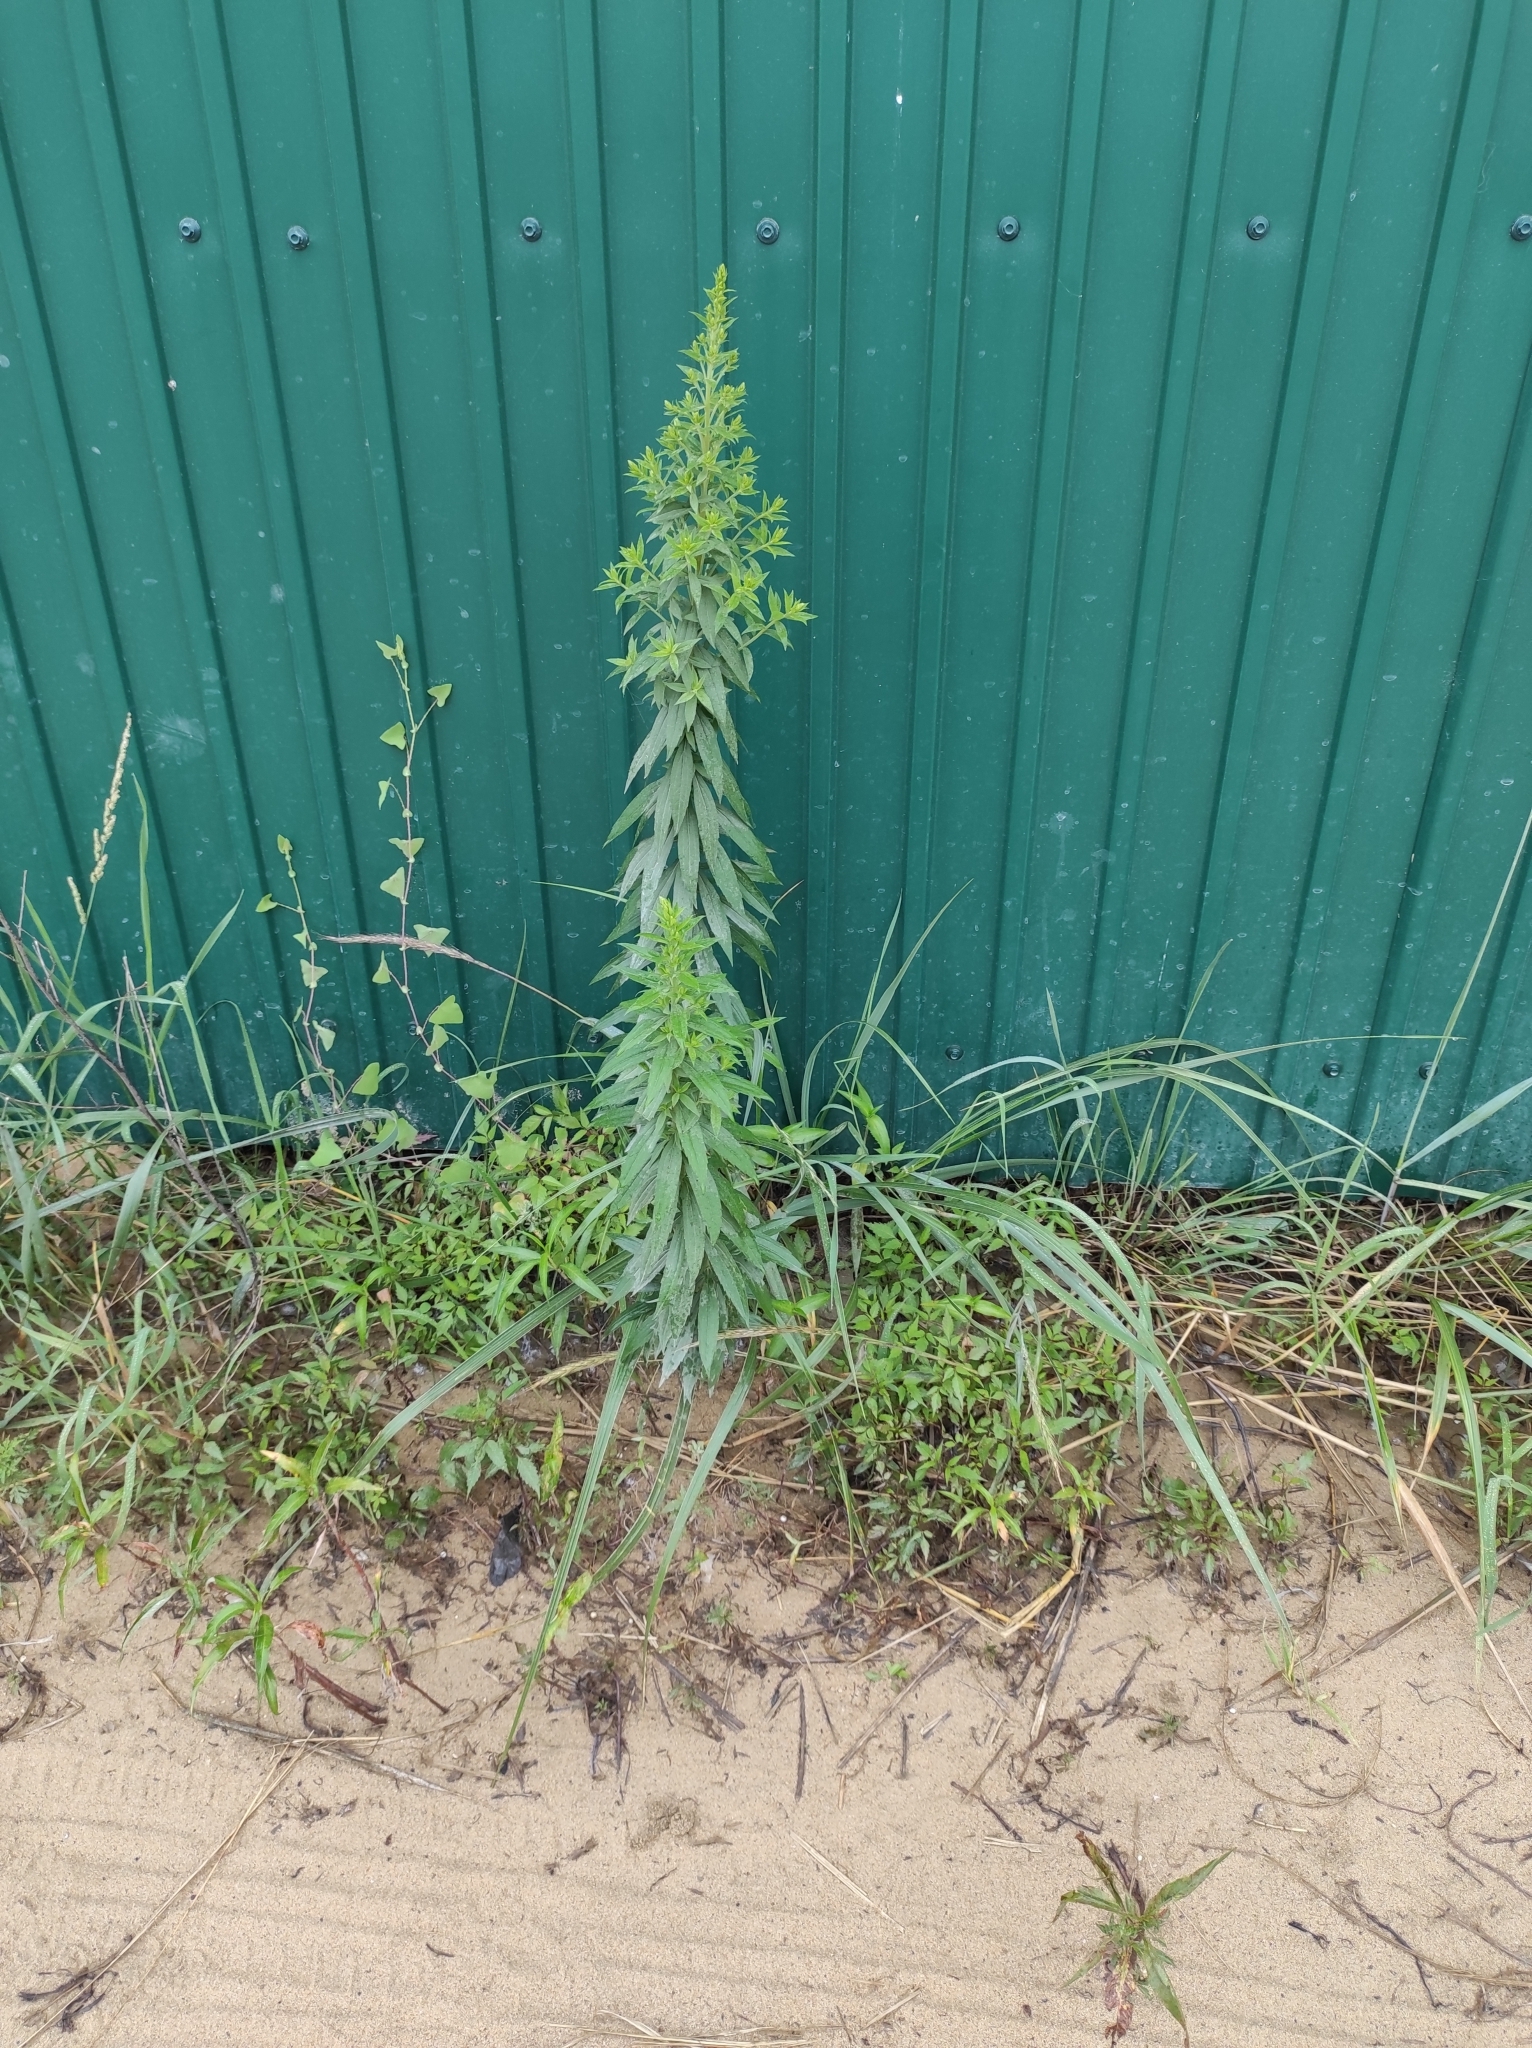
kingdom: Plantae
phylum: Tracheophyta
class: Magnoliopsida
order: Asterales
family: Asteraceae
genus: Solidago
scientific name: Solidago canadensis
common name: Canada goldenrod
